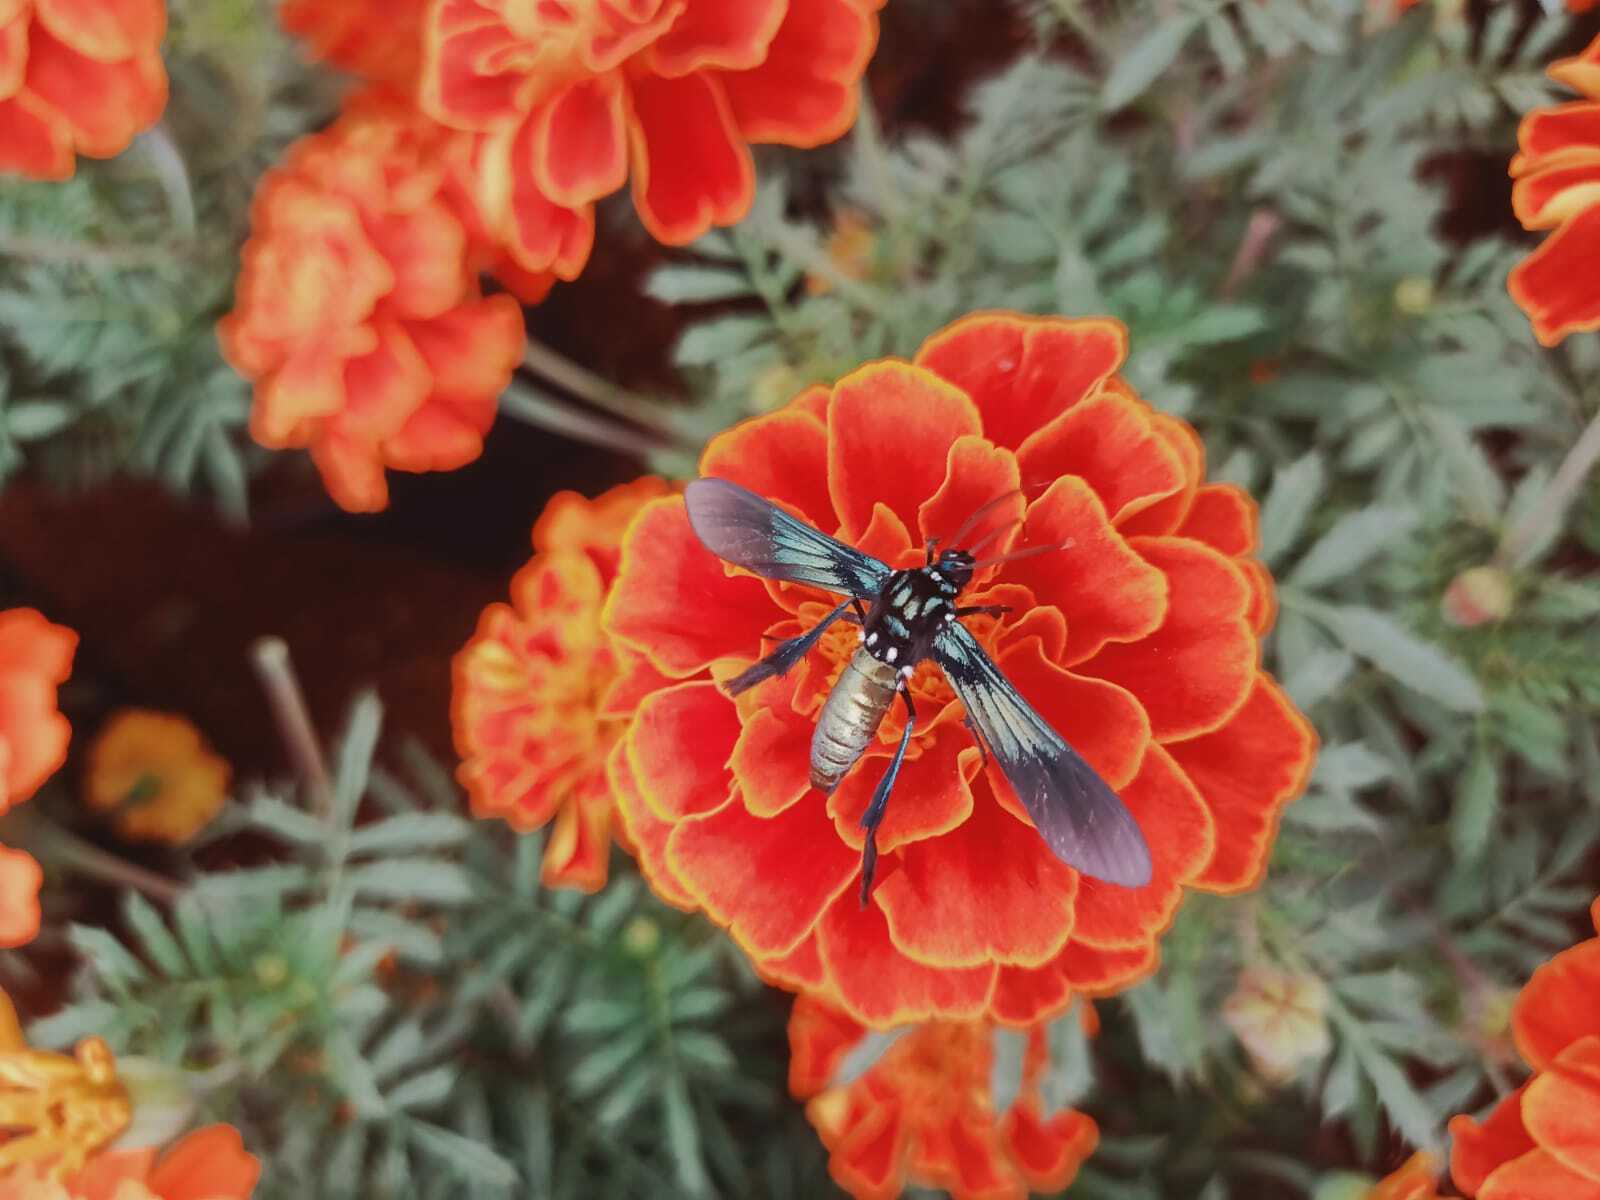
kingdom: Animalia
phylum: Arthropoda
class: Insecta
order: Lepidoptera
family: Erebidae
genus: Macrocneme
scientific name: Macrocneme chrysitis
